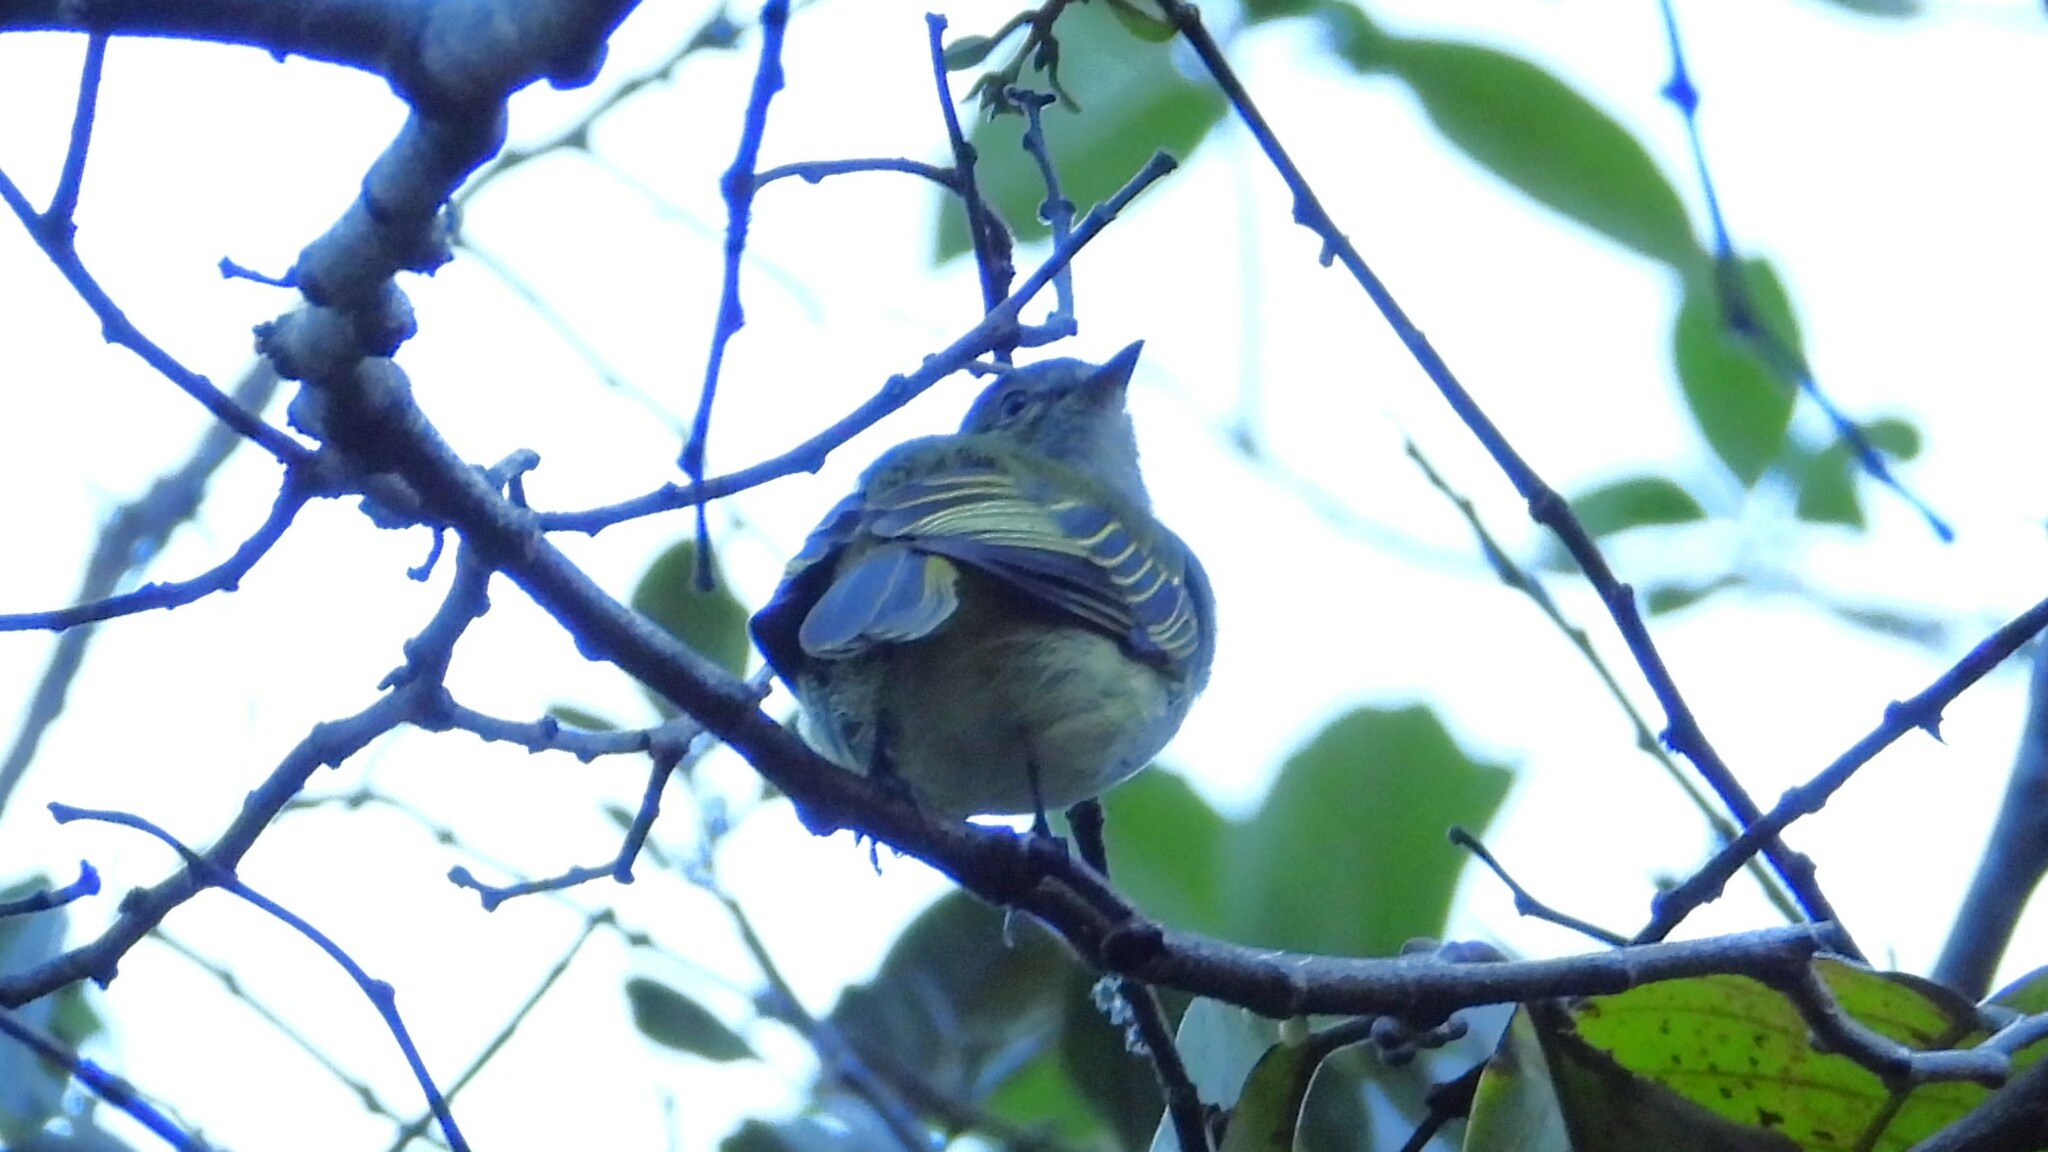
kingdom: Animalia
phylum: Chordata
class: Aves
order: Passeriformes
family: Tyrannidae
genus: Zimmerius
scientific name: Zimmerius vilissimus
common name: Paltry tyrannulet
